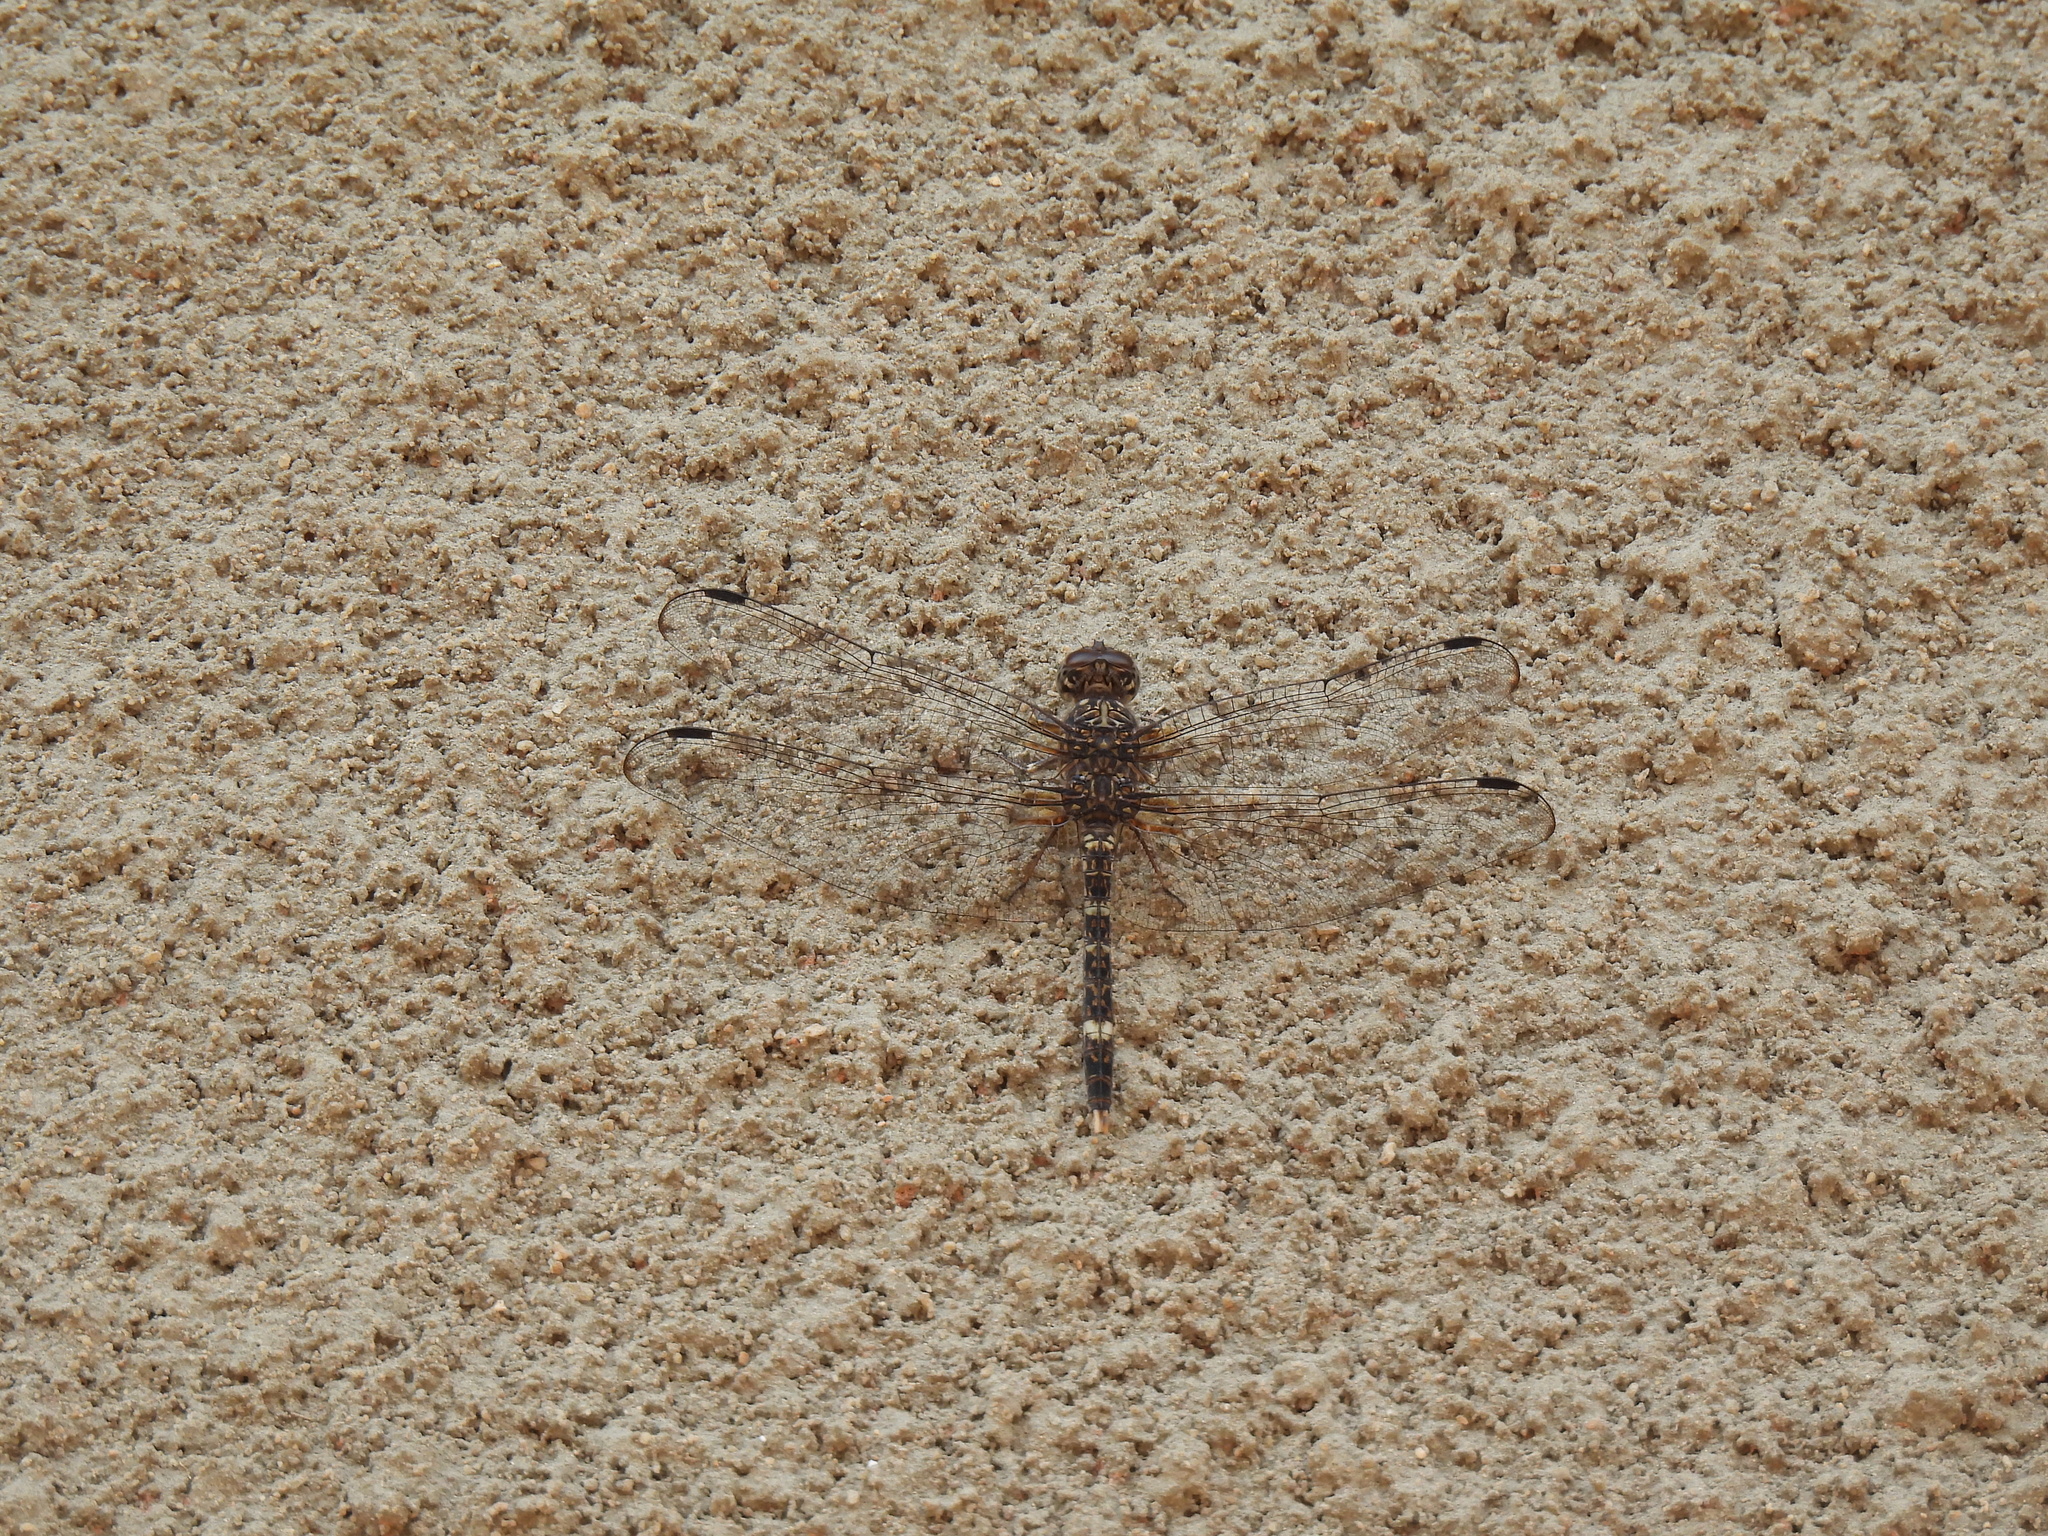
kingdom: Animalia
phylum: Arthropoda
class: Insecta
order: Odonata
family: Libellulidae
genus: Bradinopyga
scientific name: Bradinopyga cornuta
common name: Flecked wall-skimmer
